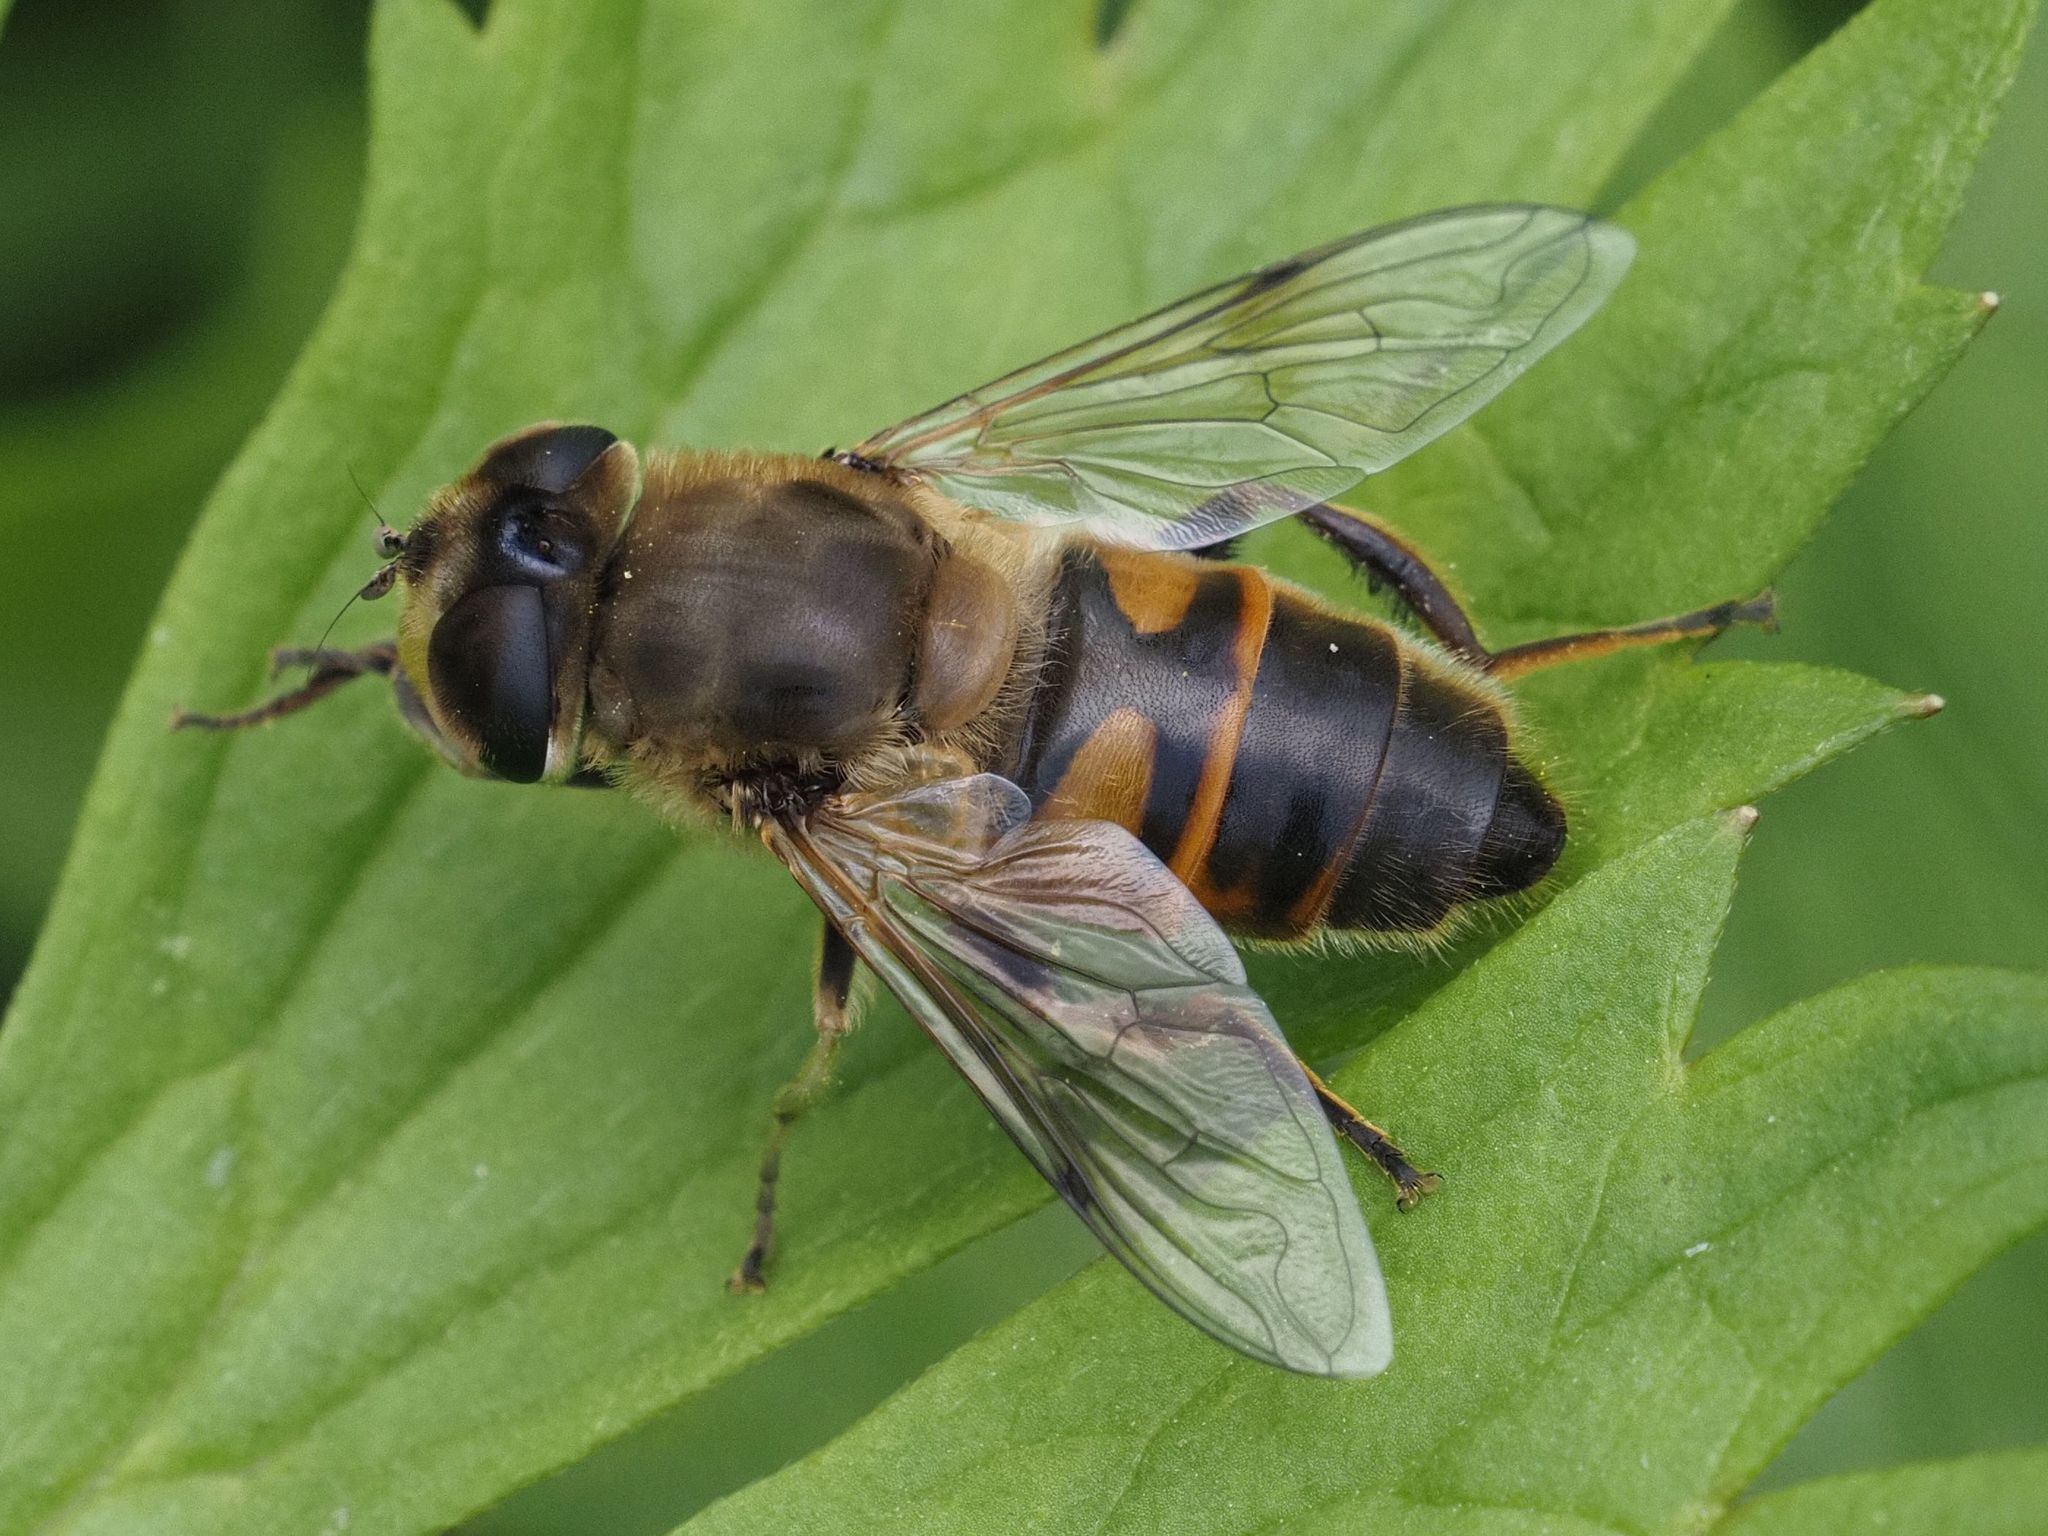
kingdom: Animalia
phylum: Arthropoda
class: Insecta
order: Diptera
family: Syrphidae
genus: Eristalis
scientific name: Eristalis tenax
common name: Drone fly
